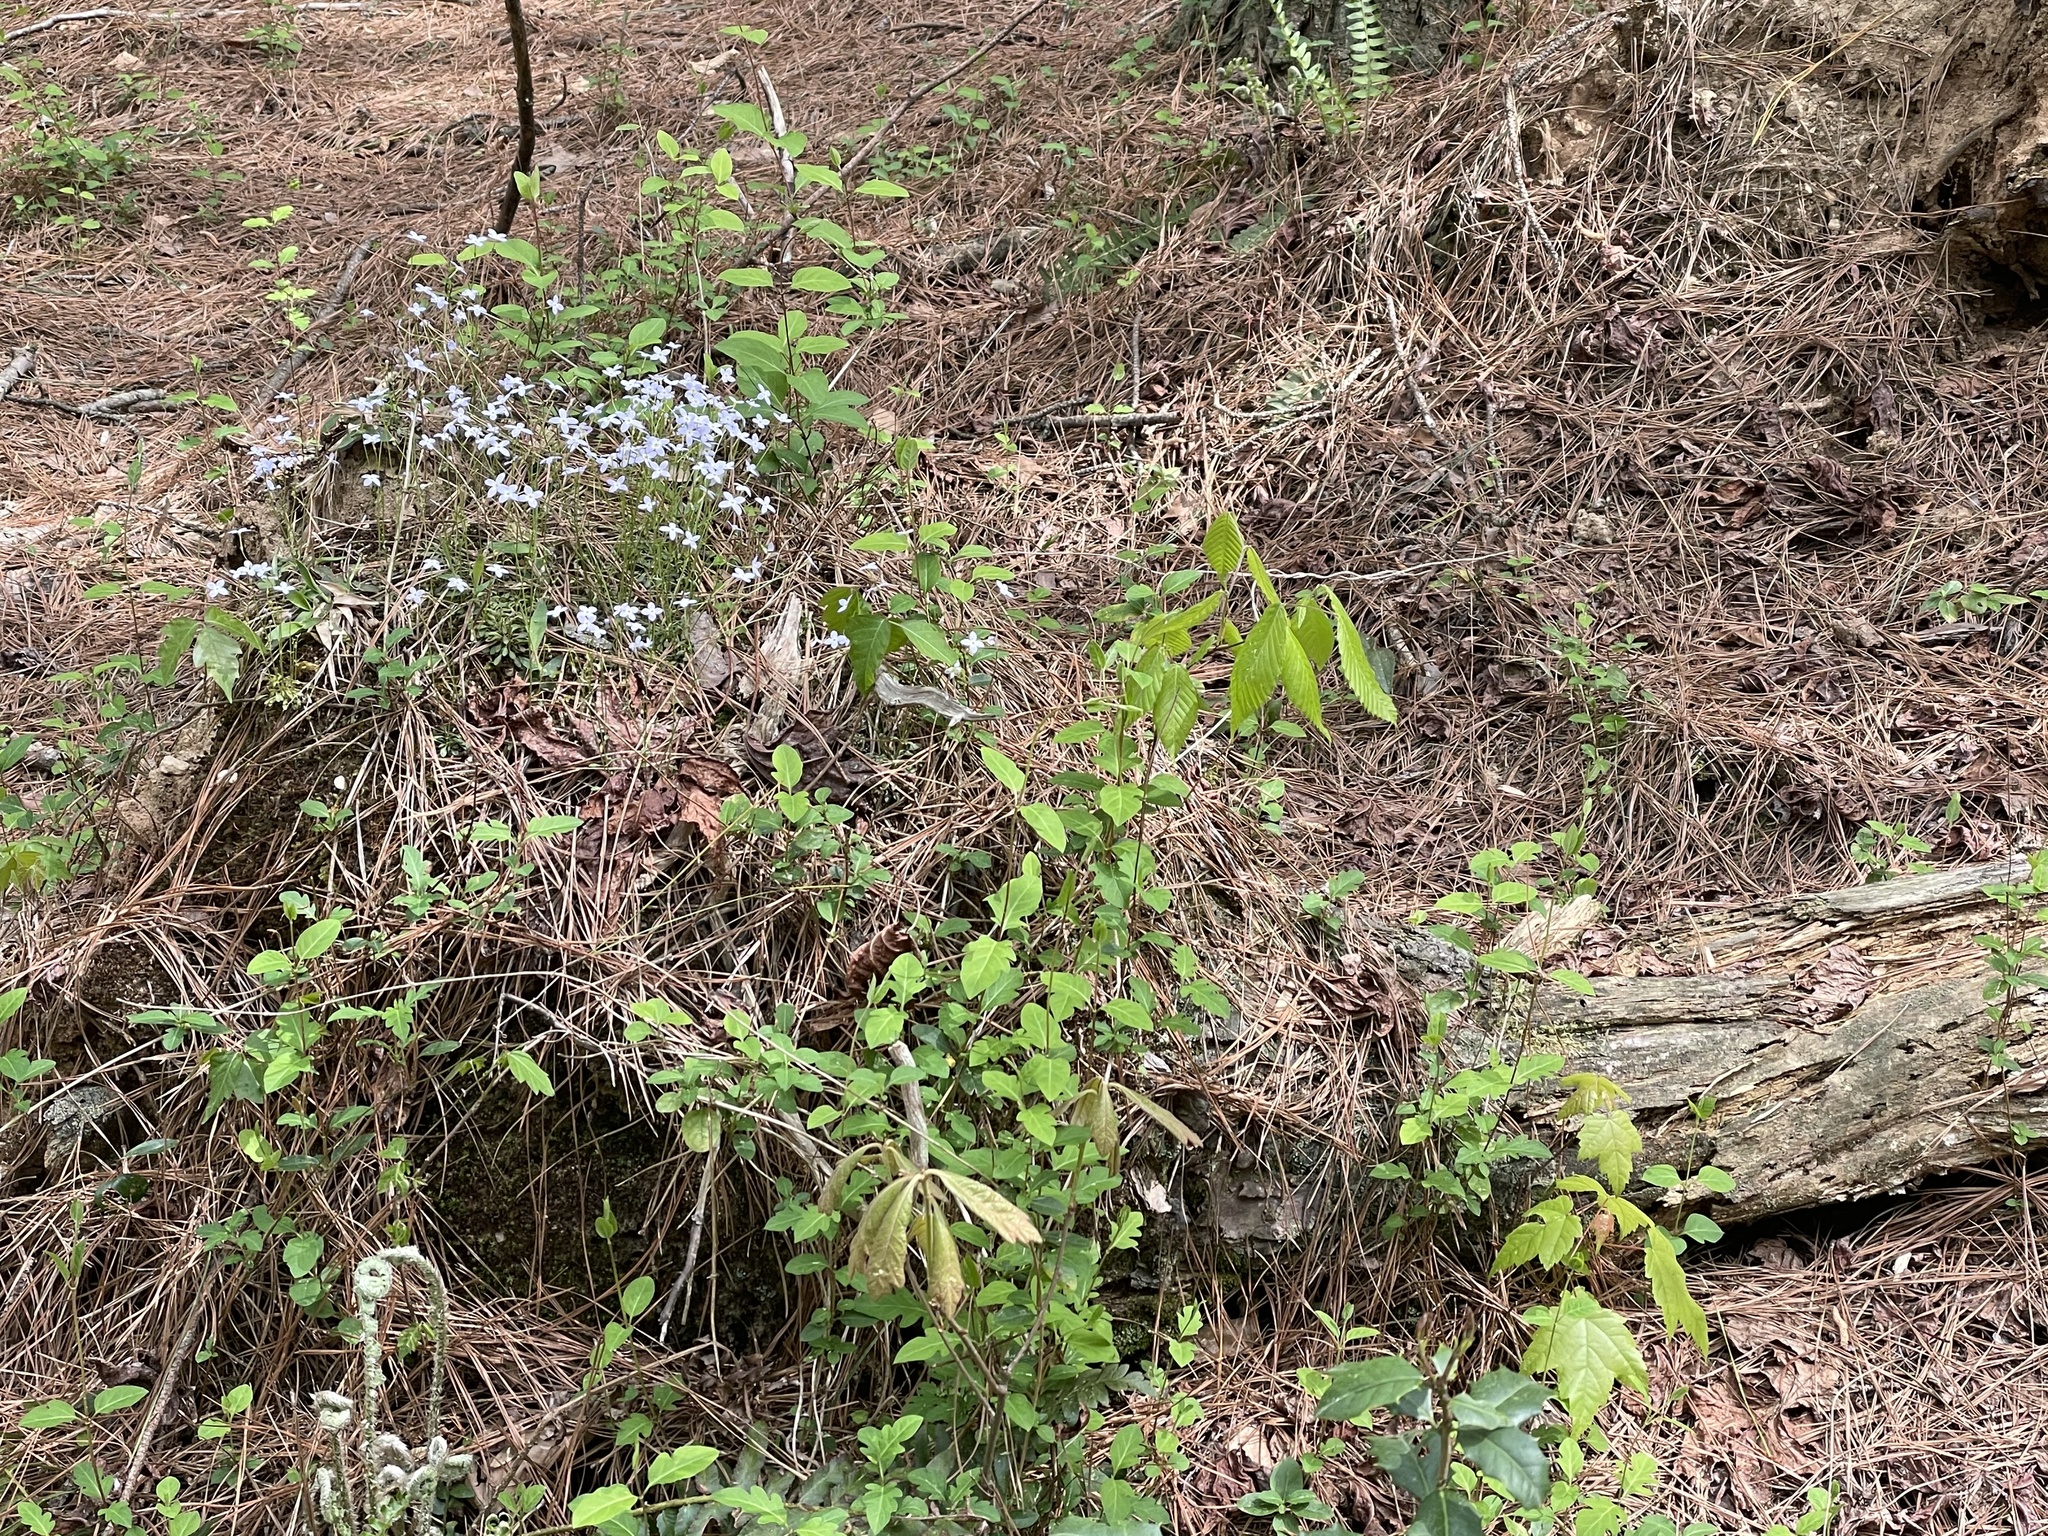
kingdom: Plantae
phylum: Tracheophyta
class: Magnoliopsida
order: Gentianales
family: Rubiaceae
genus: Houstonia
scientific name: Houstonia caerulea
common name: Bluets
